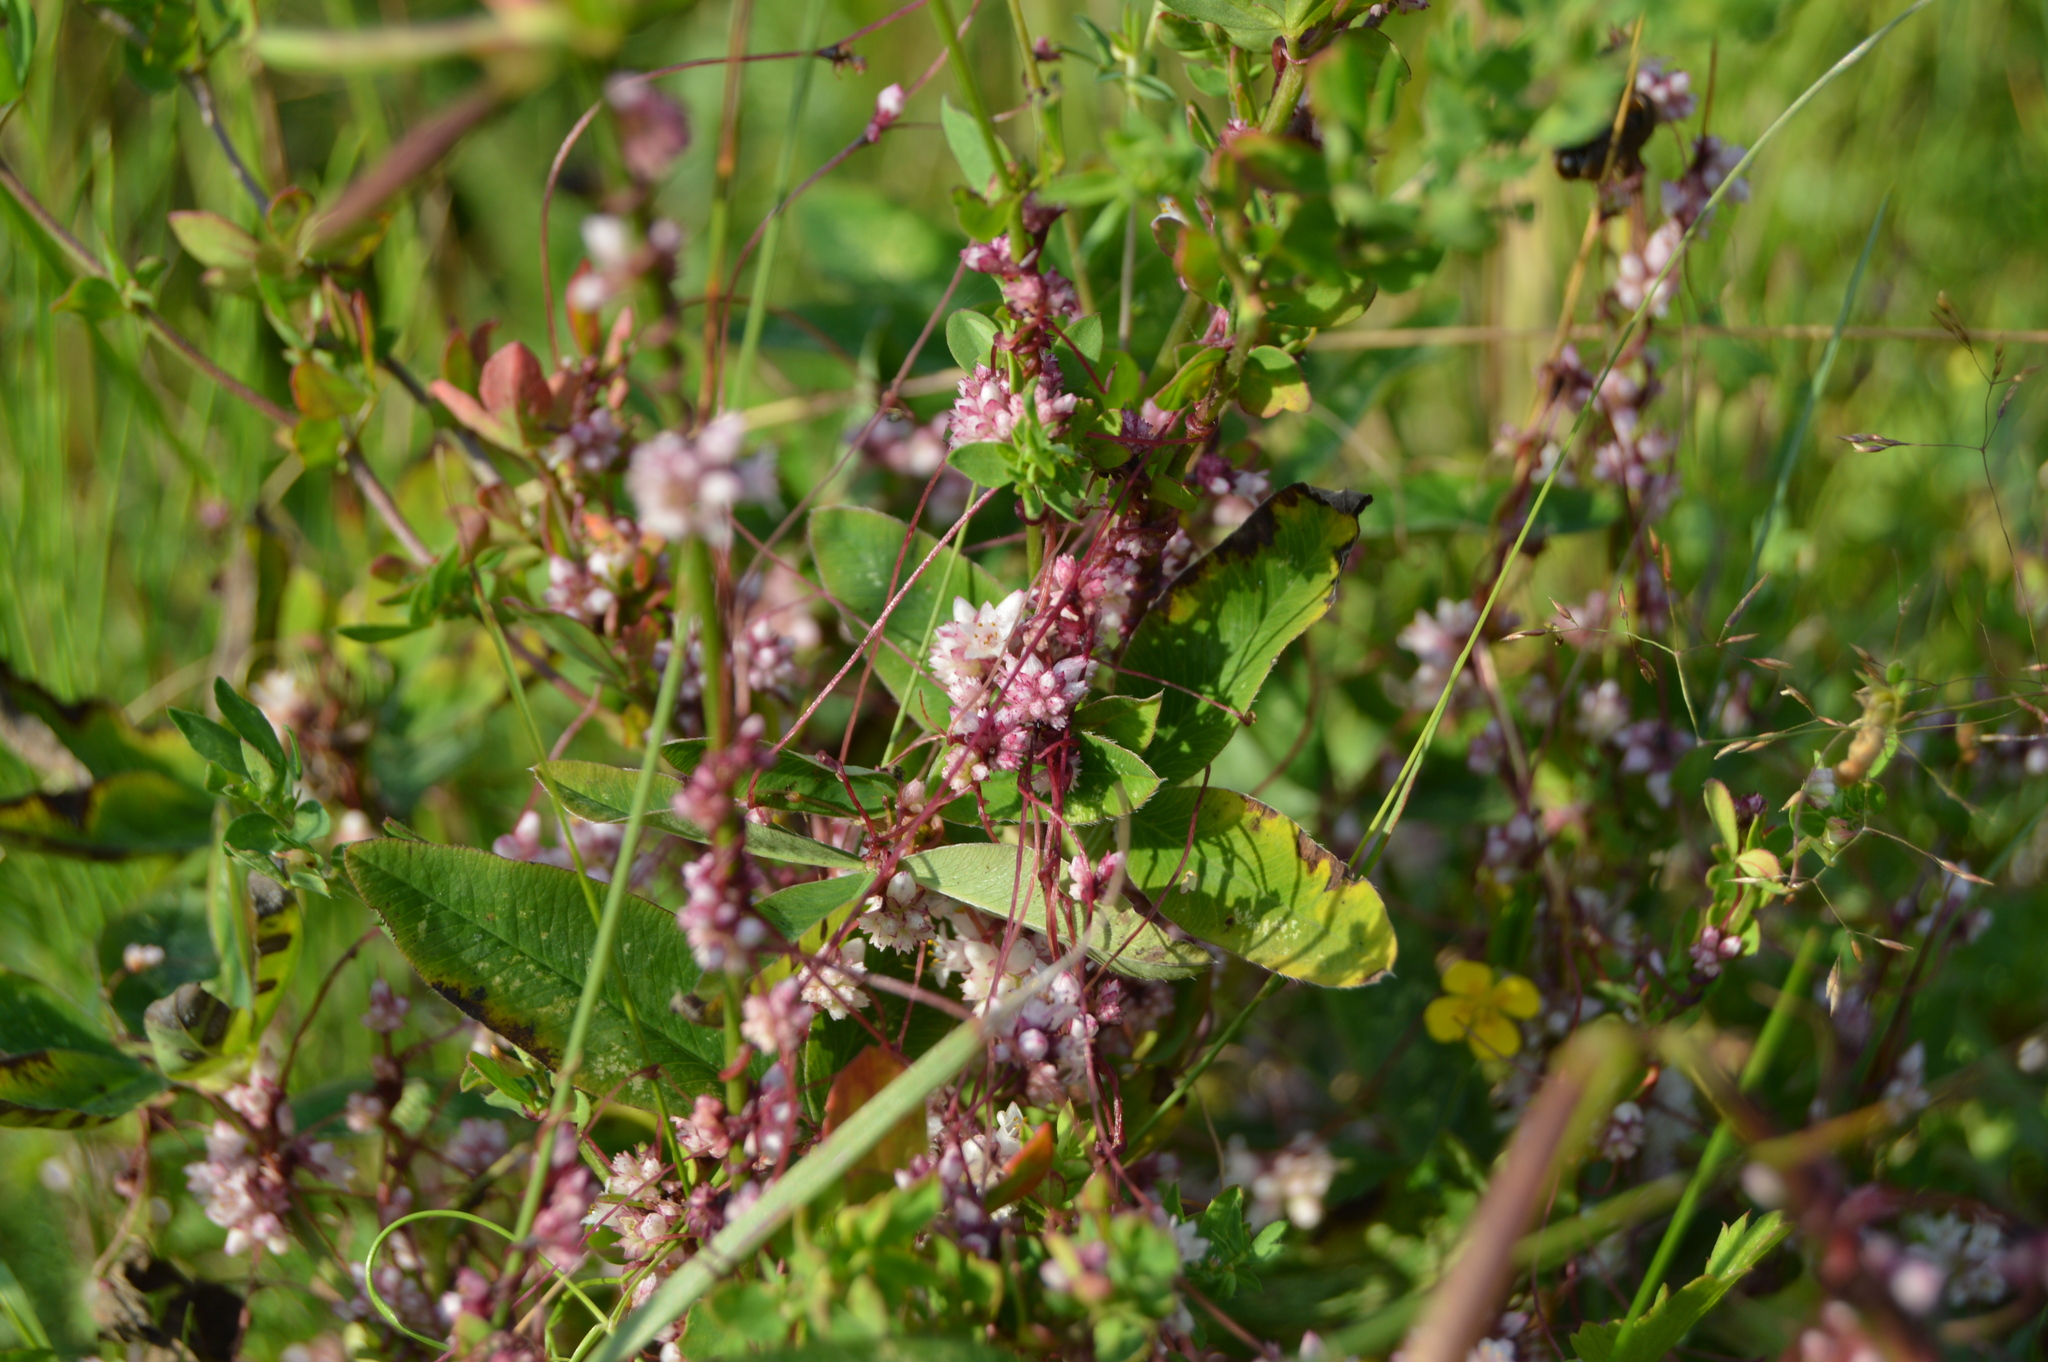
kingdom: Plantae
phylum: Tracheophyta
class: Magnoliopsida
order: Solanales
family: Convolvulaceae
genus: Cuscuta
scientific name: Cuscuta epithymum
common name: Clover dodder
